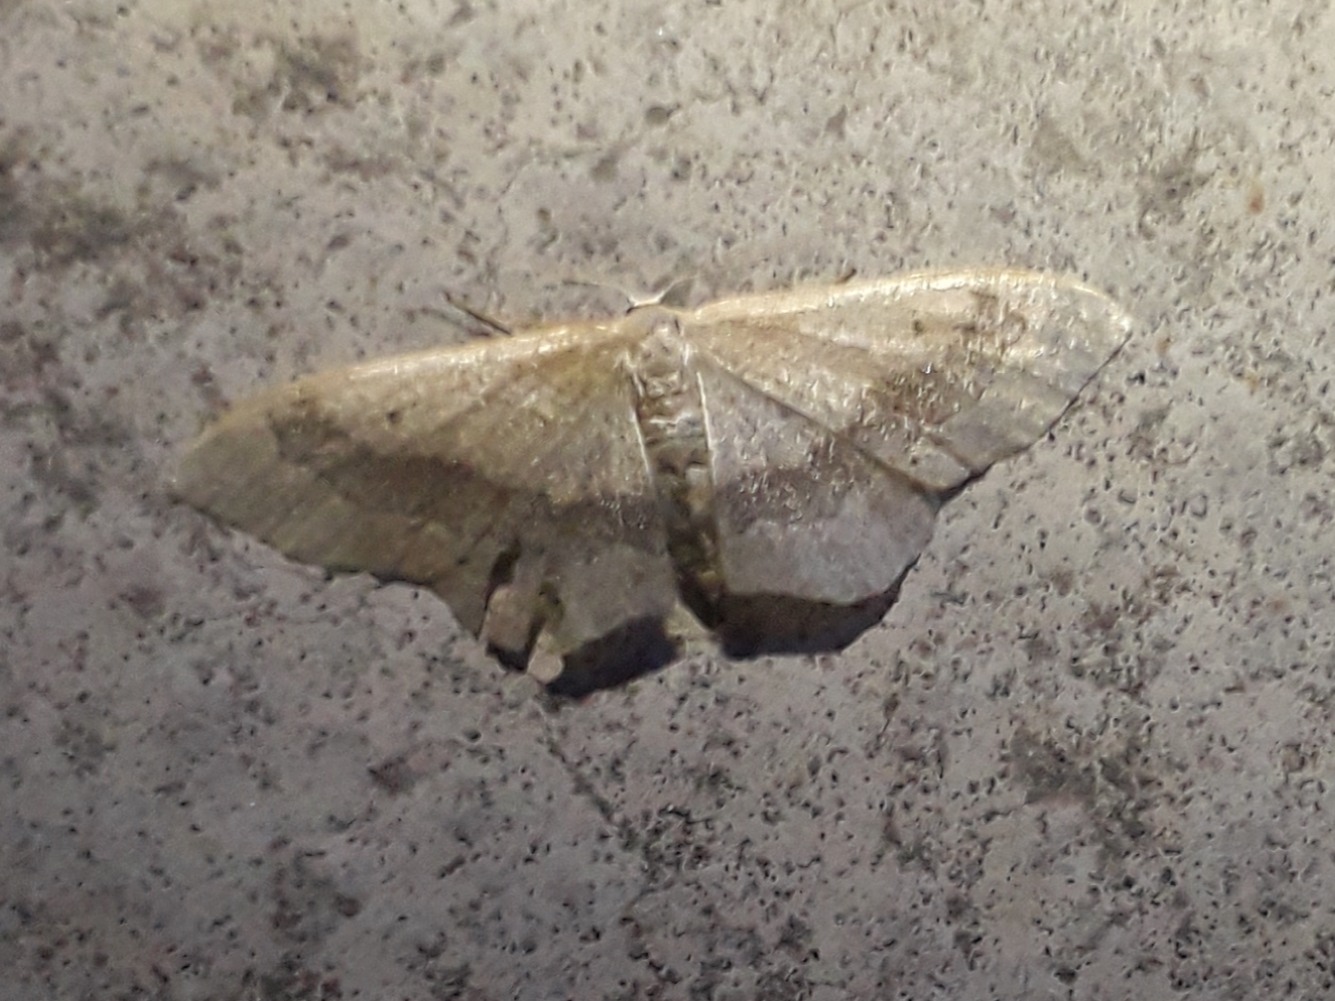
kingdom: Animalia
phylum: Arthropoda
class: Insecta
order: Lepidoptera
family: Geometridae
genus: Idaea
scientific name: Idaea aversata
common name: Riband wave
